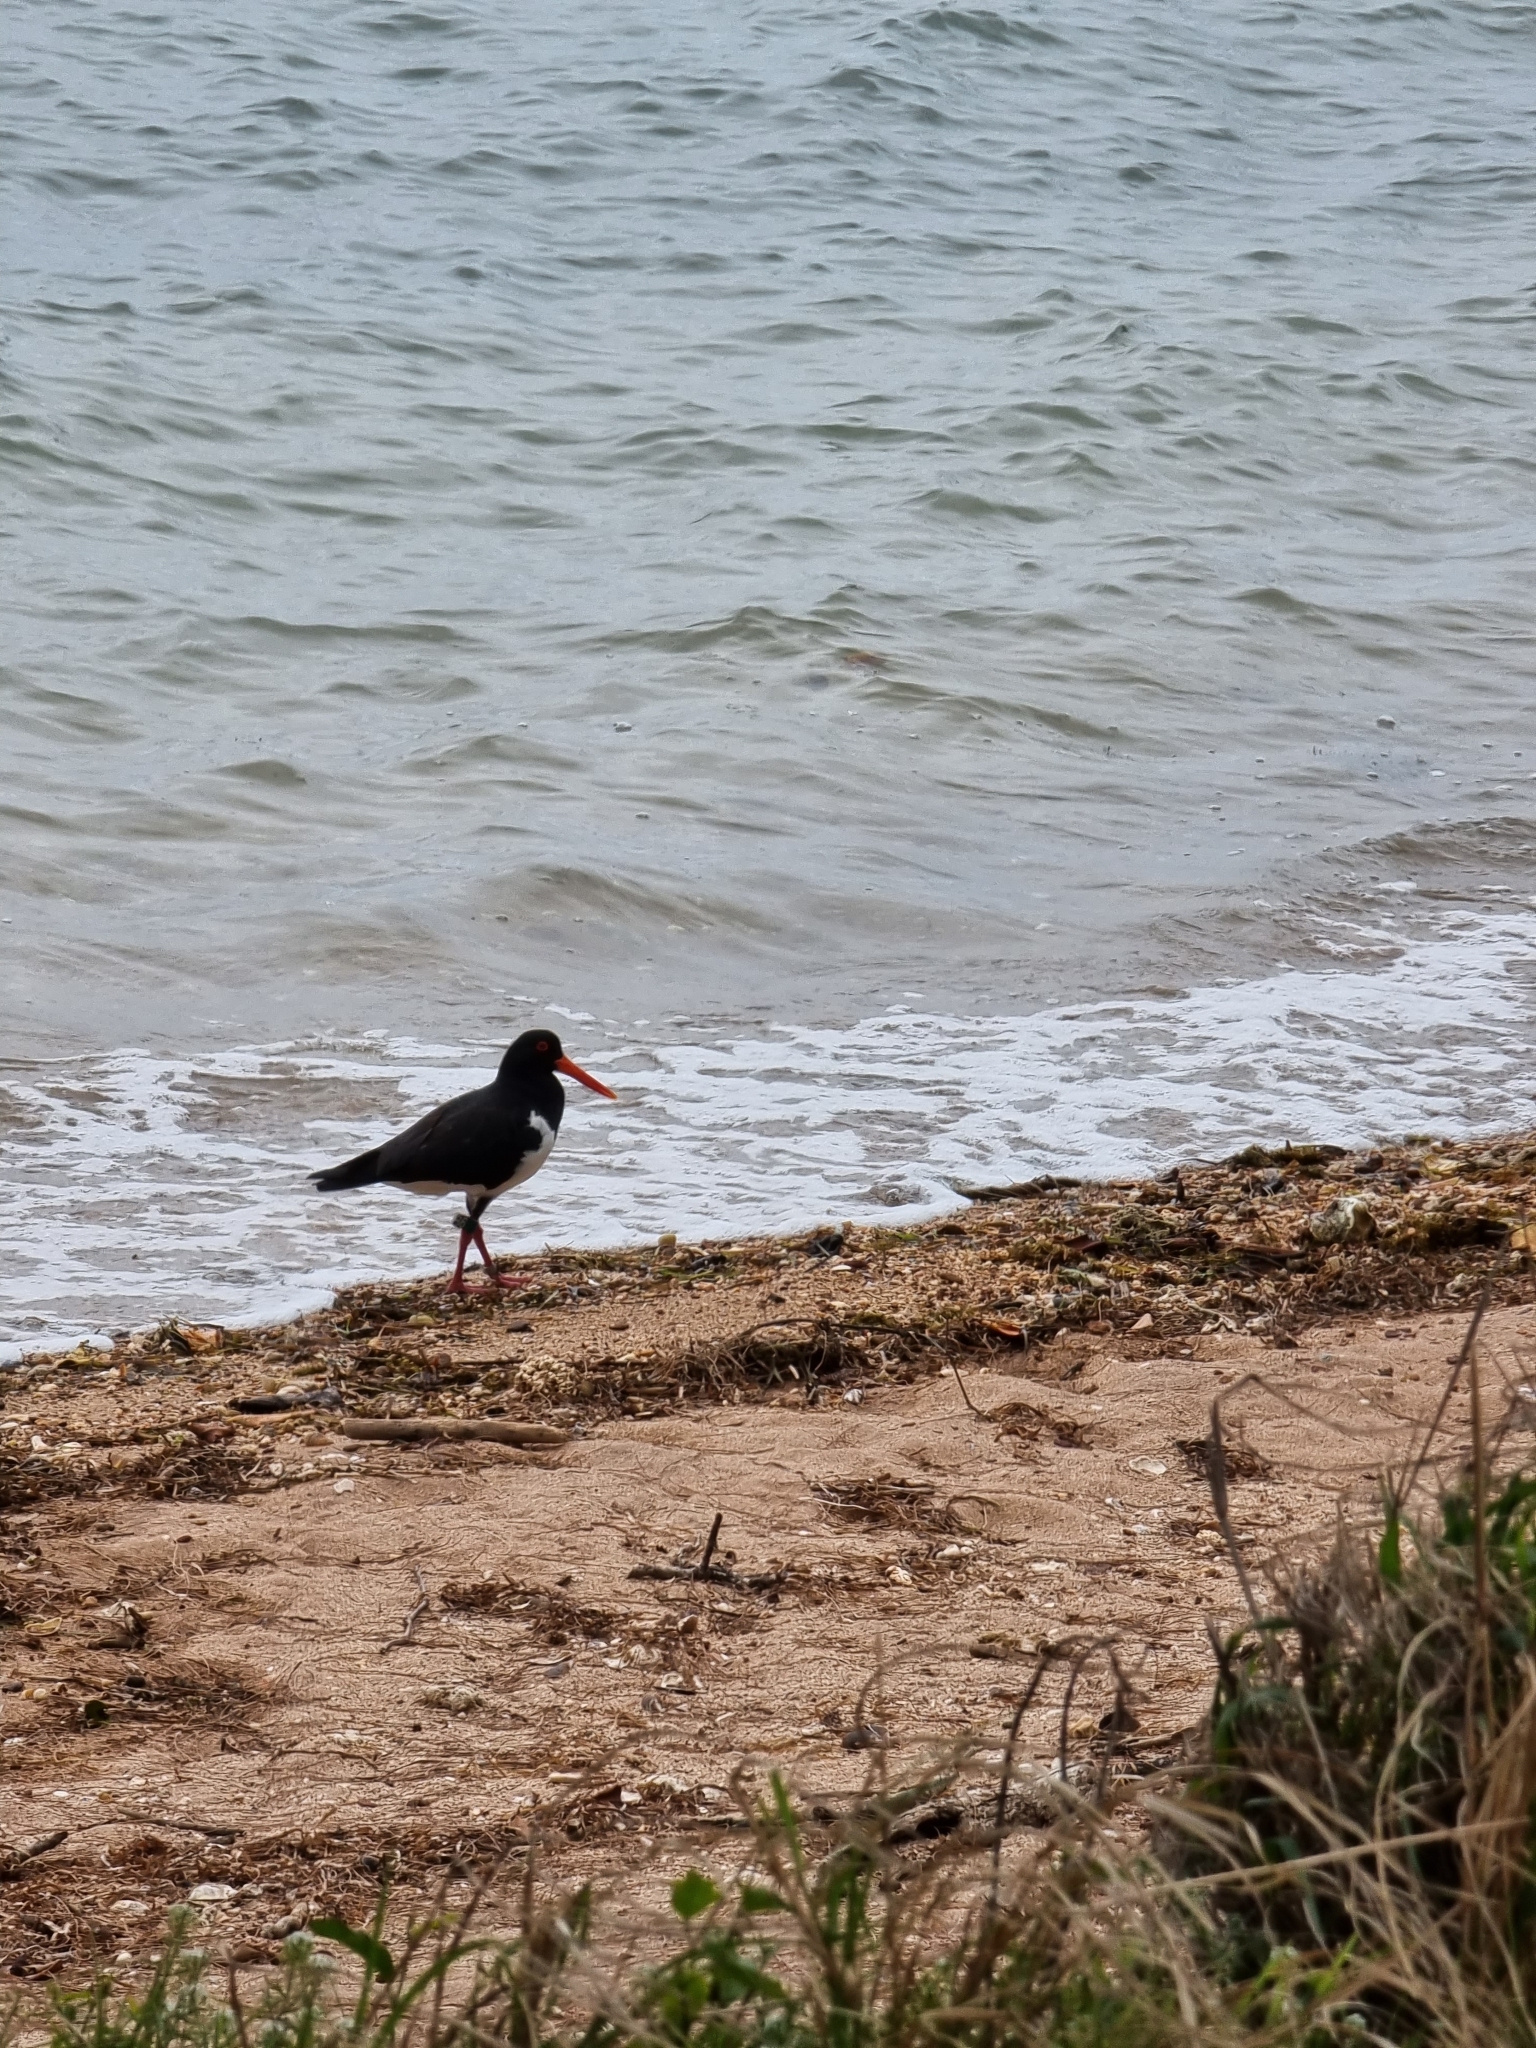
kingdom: Animalia
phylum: Chordata
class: Aves
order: Charadriiformes
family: Haematopodidae
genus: Haematopus
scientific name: Haematopus longirostris
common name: Pied oystercatcher
